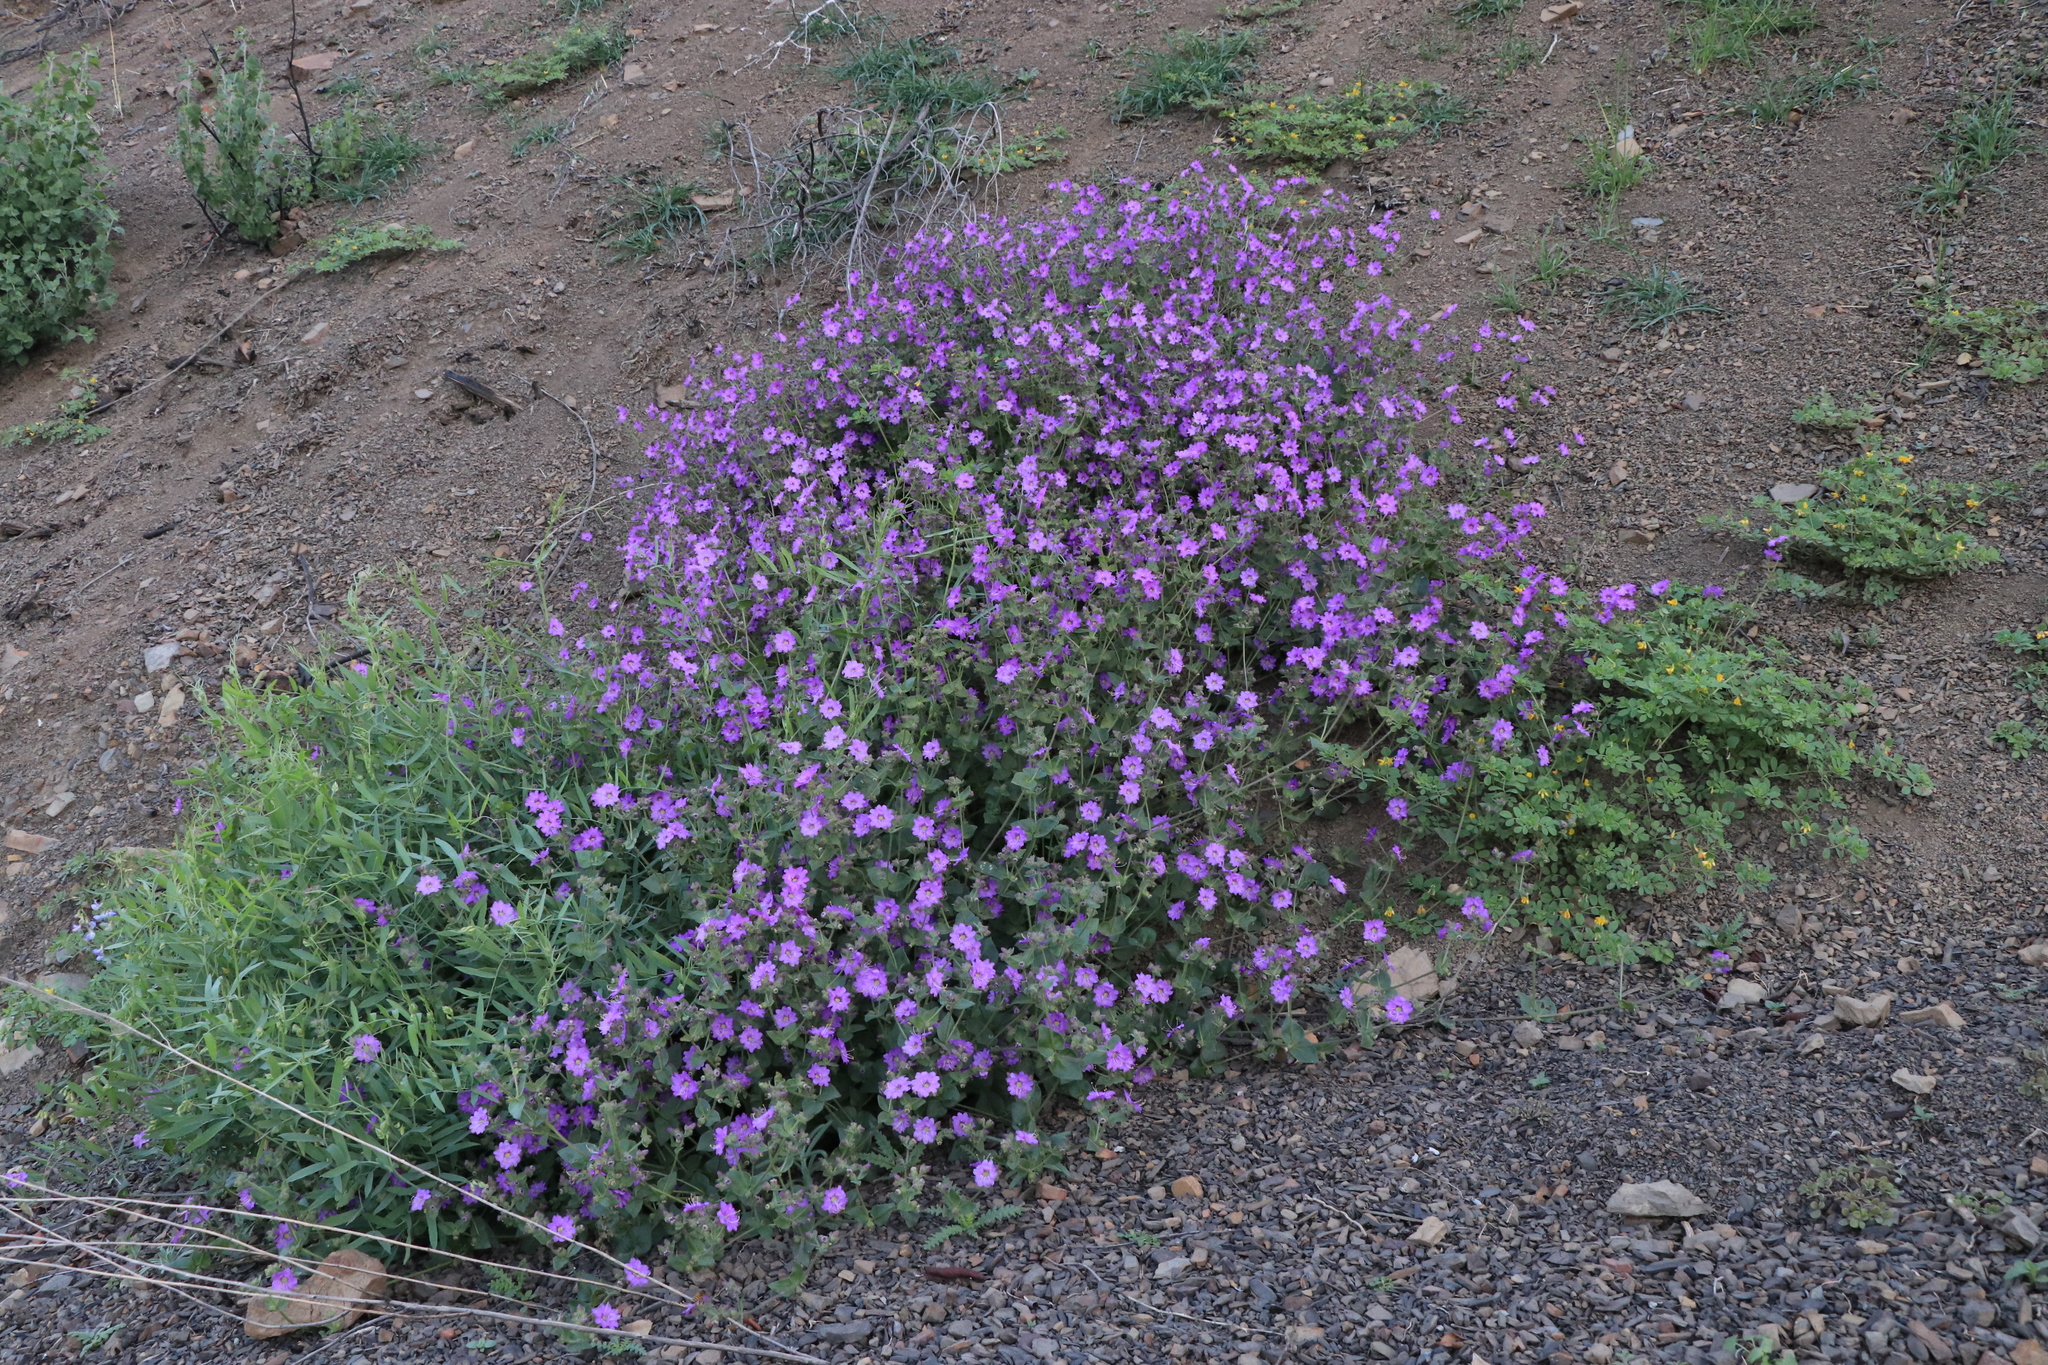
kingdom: Plantae
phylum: Tracheophyta
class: Magnoliopsida
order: Caryophyllales
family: Nyctaginaceae
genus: Mirabilis
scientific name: Mirabilis laevis
